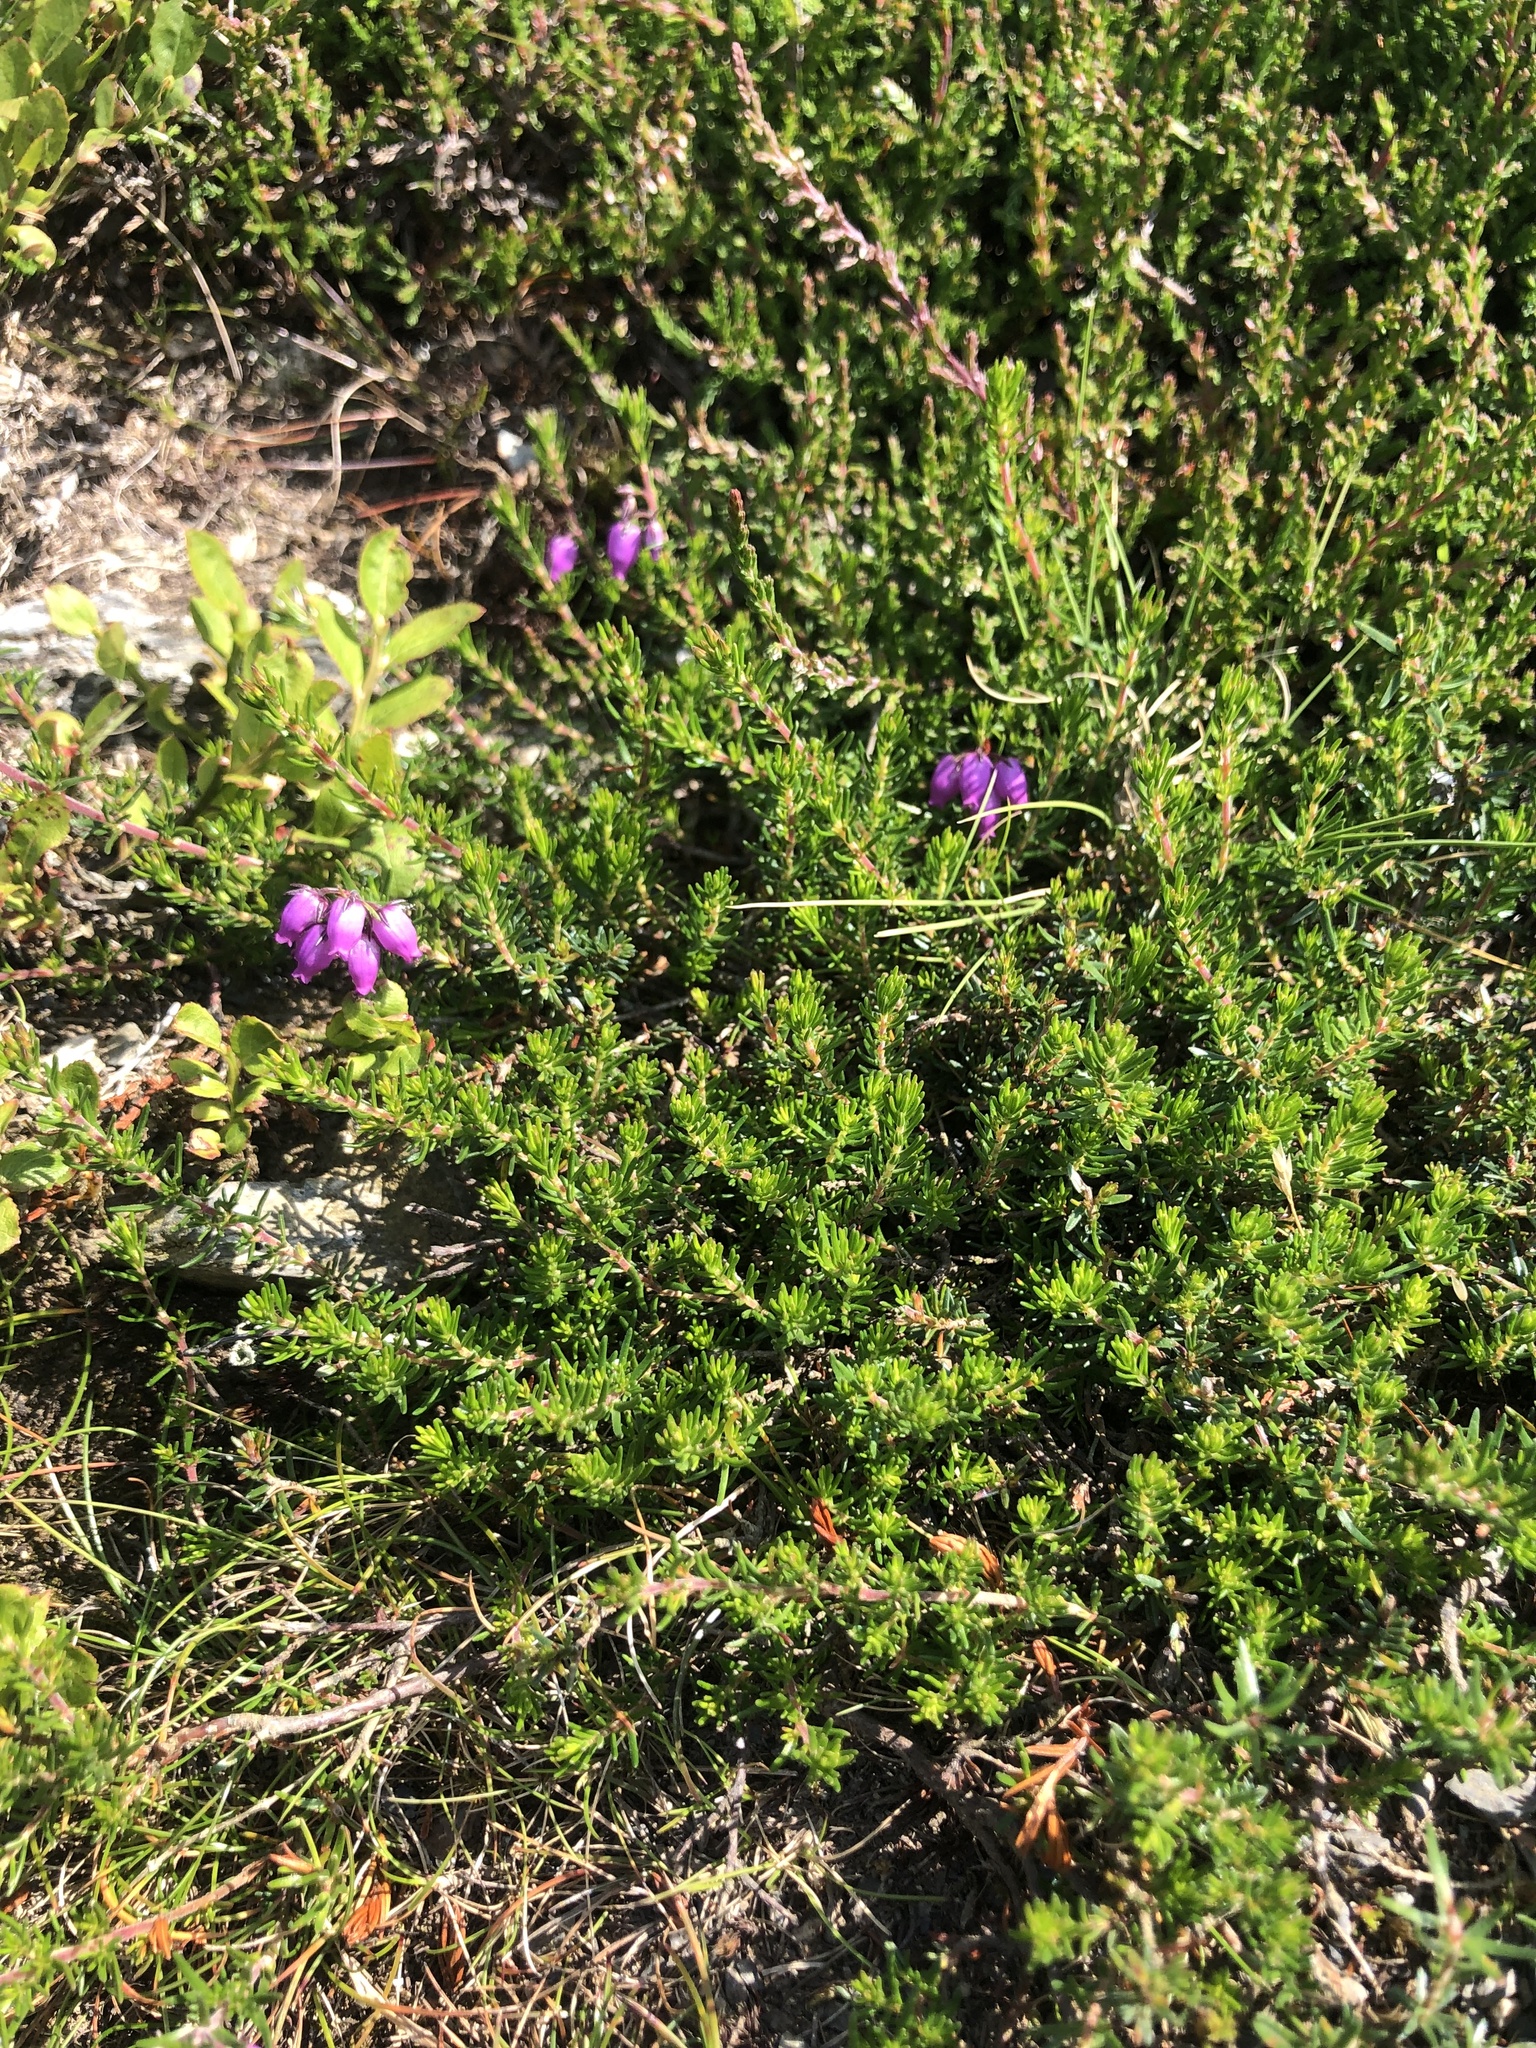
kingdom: Plantae
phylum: Tracheophyta
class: Magnoliopsida
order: Ericales
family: Ericaceae
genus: Erica
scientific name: Erica cinerea
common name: Bell heather
